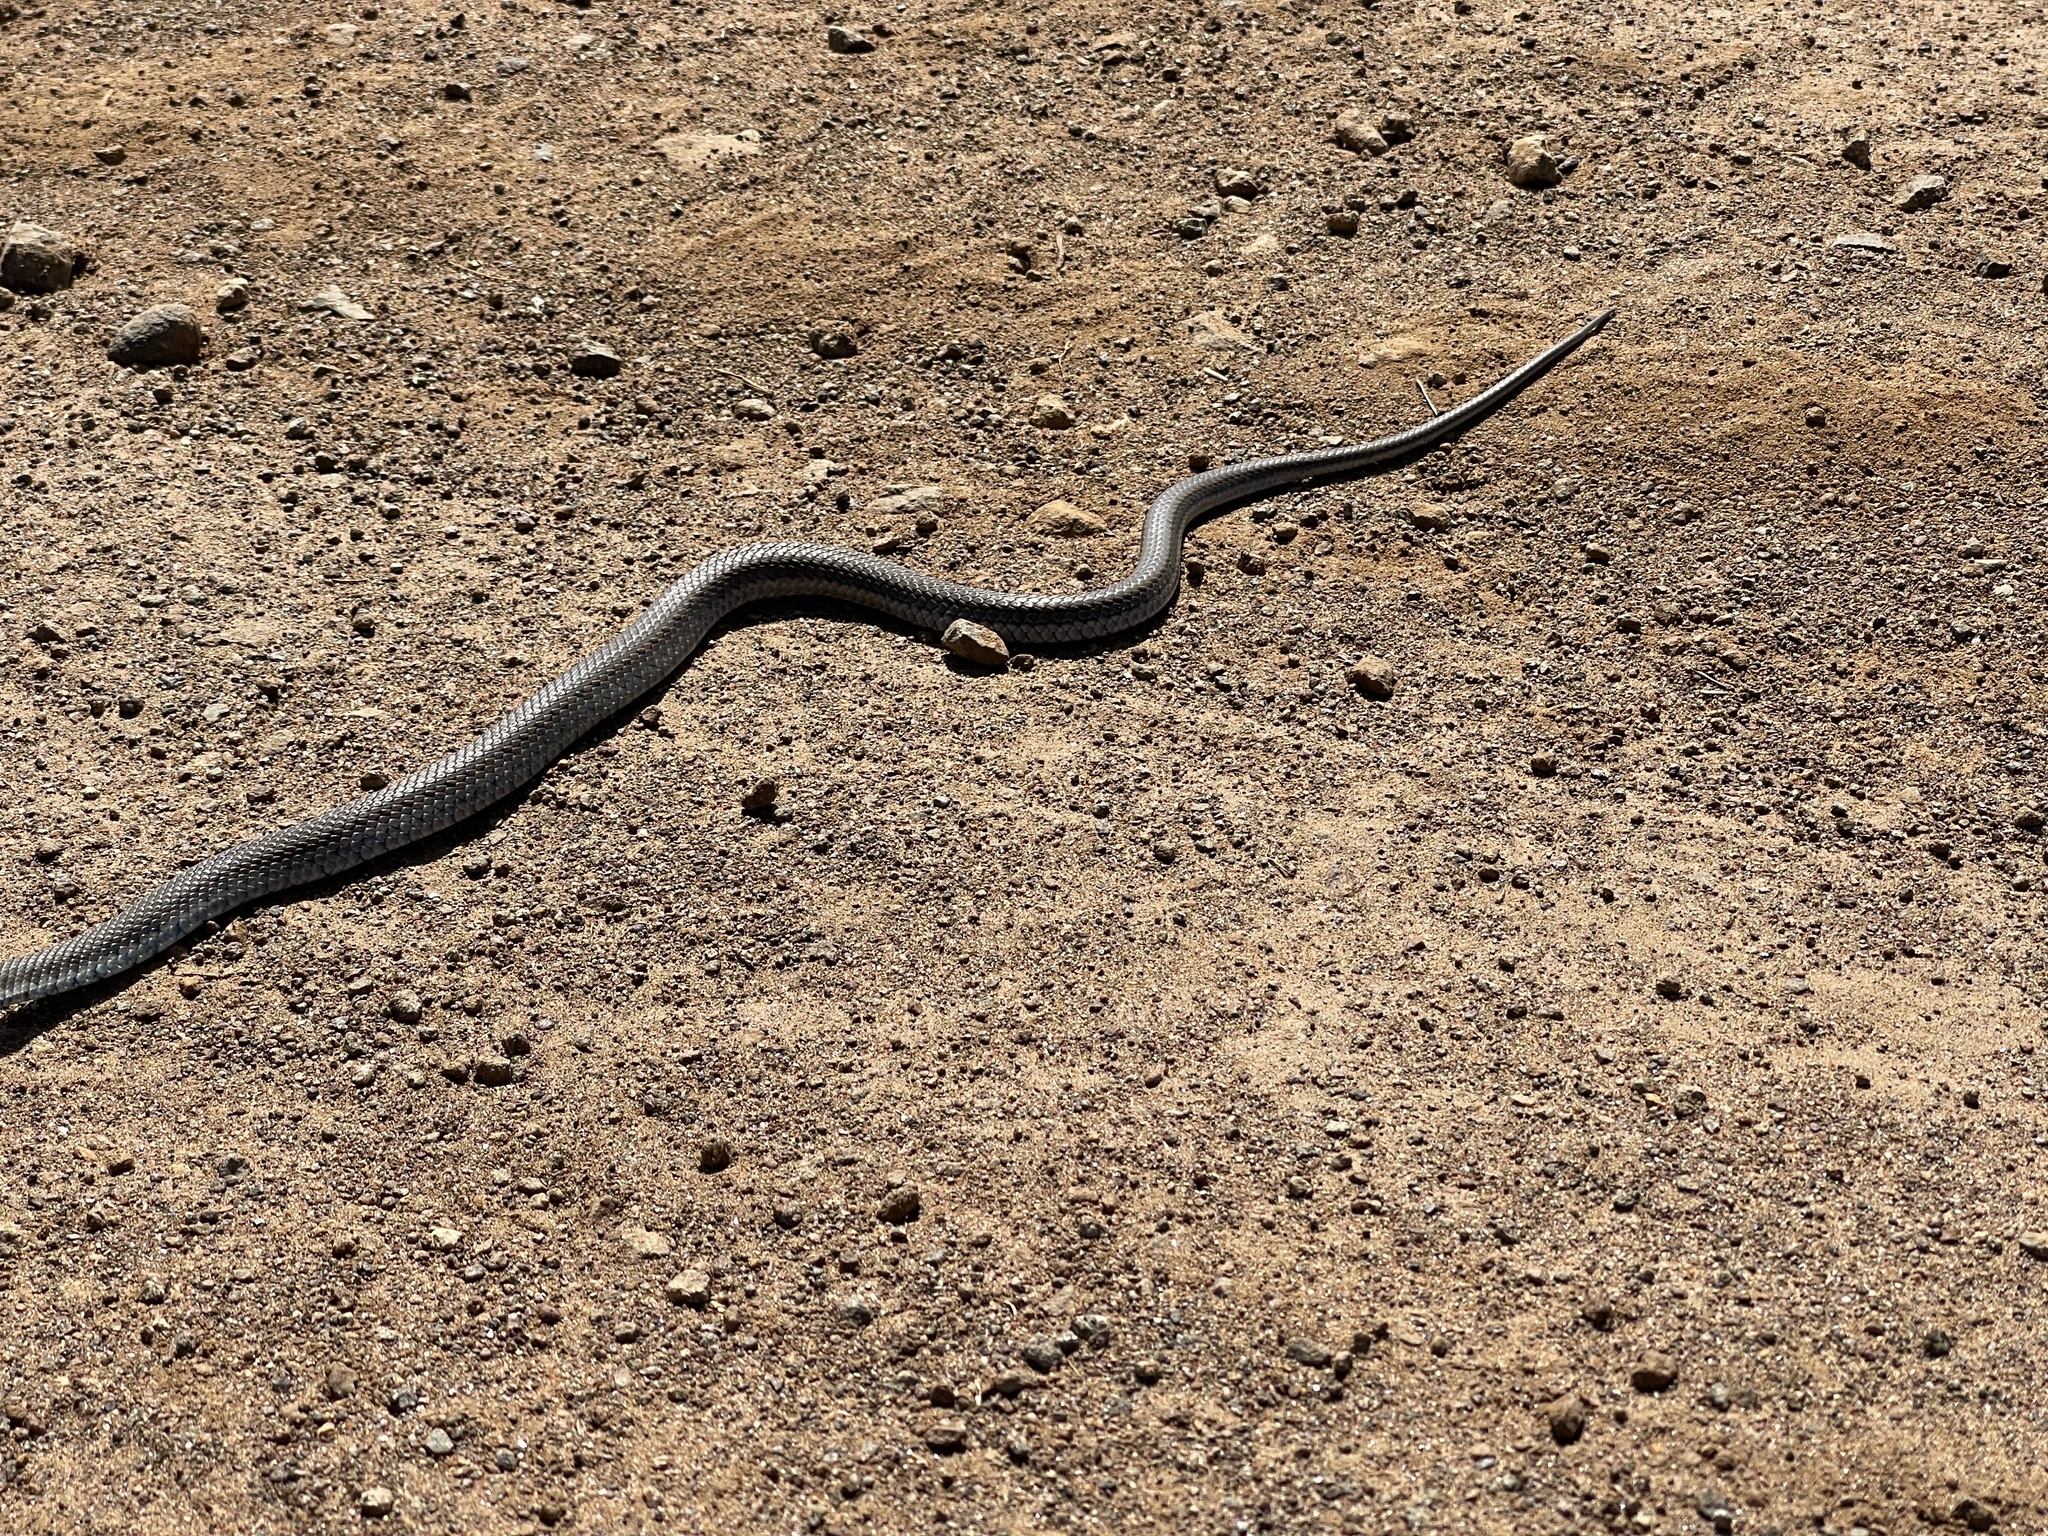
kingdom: Animalia
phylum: Chordata
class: Squamata
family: Psammophiidae
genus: Psammophylax
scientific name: Psammophylax rhombeatus
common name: Rhombic skaapsteker
